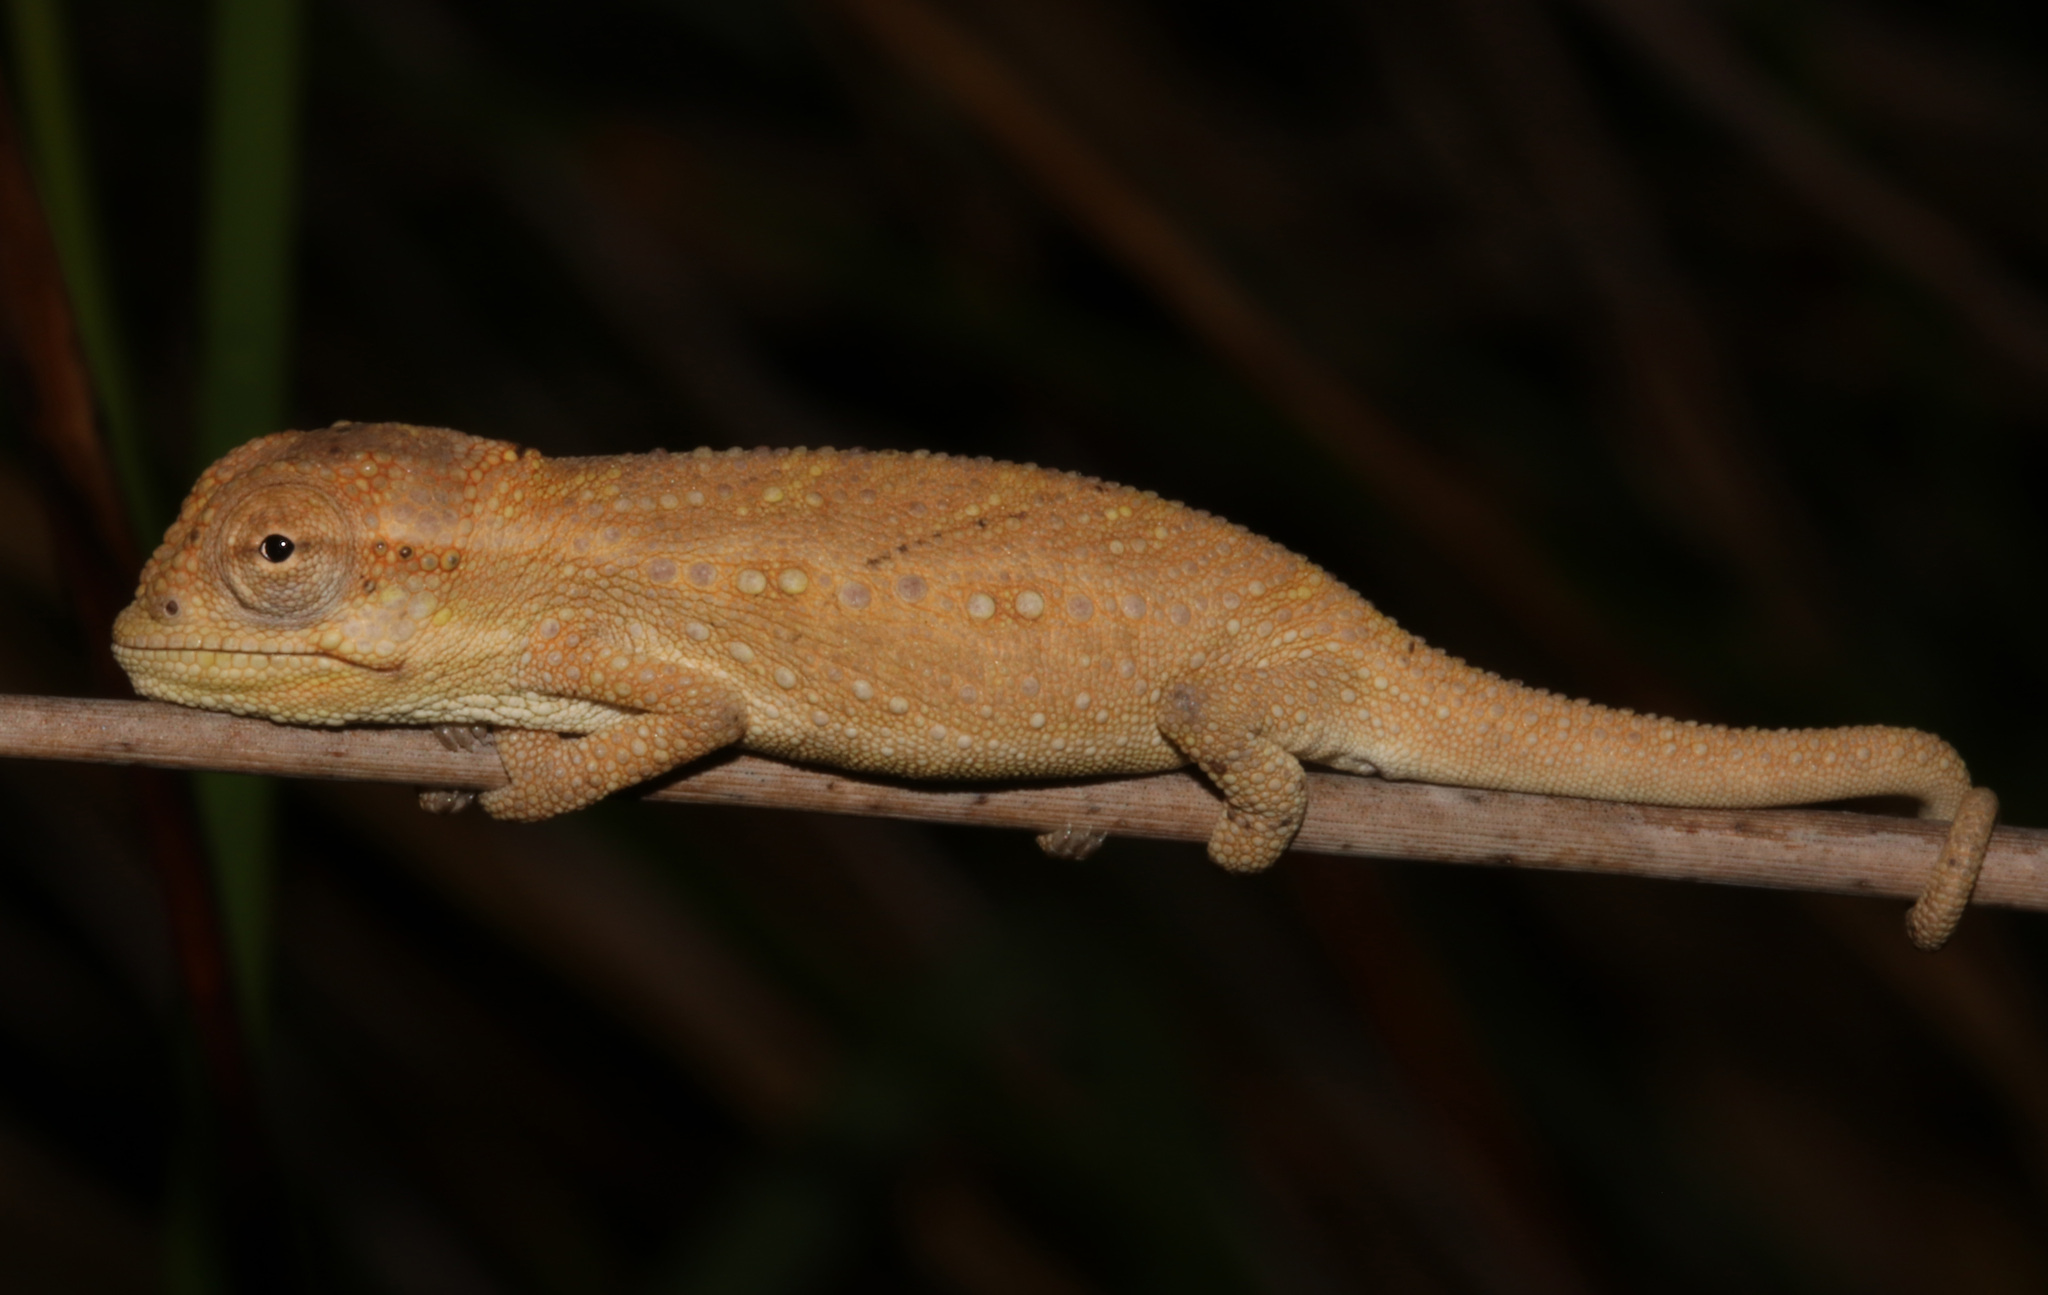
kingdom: Animalia
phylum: Chordata
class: Squamata
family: Chamaeleonidae
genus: Bradypodion
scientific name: Bradypodion pumilum
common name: Cape dwarf chameleon
